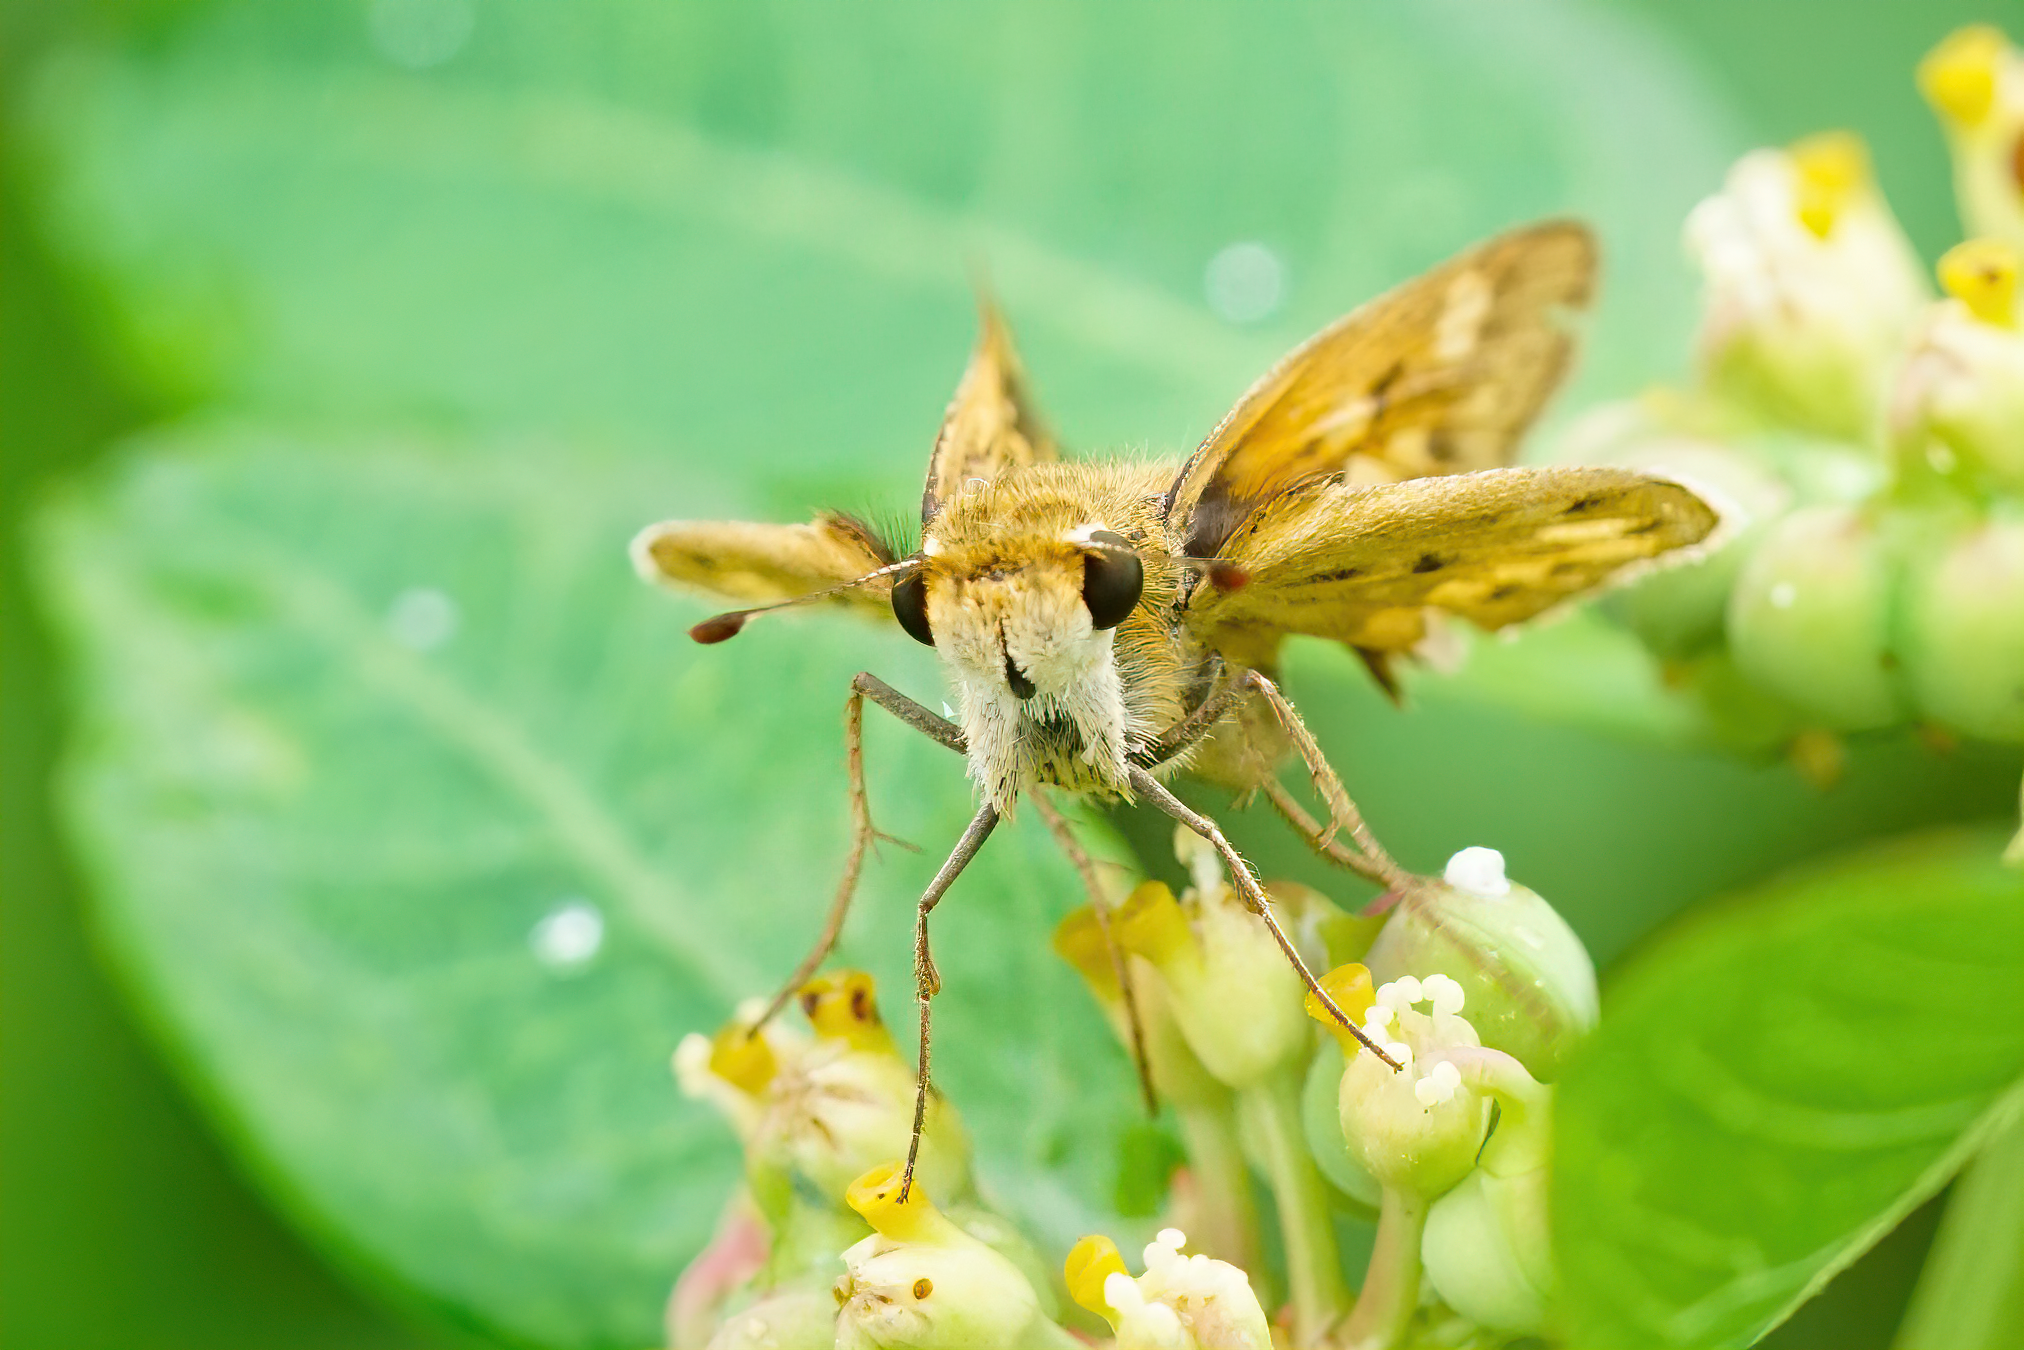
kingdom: Animalia
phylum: Arthropoda
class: Insecta
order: Lepidoptera
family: Hesperiidae
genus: Hylephila
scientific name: Hylephila phyleus
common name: Fiery skipper
